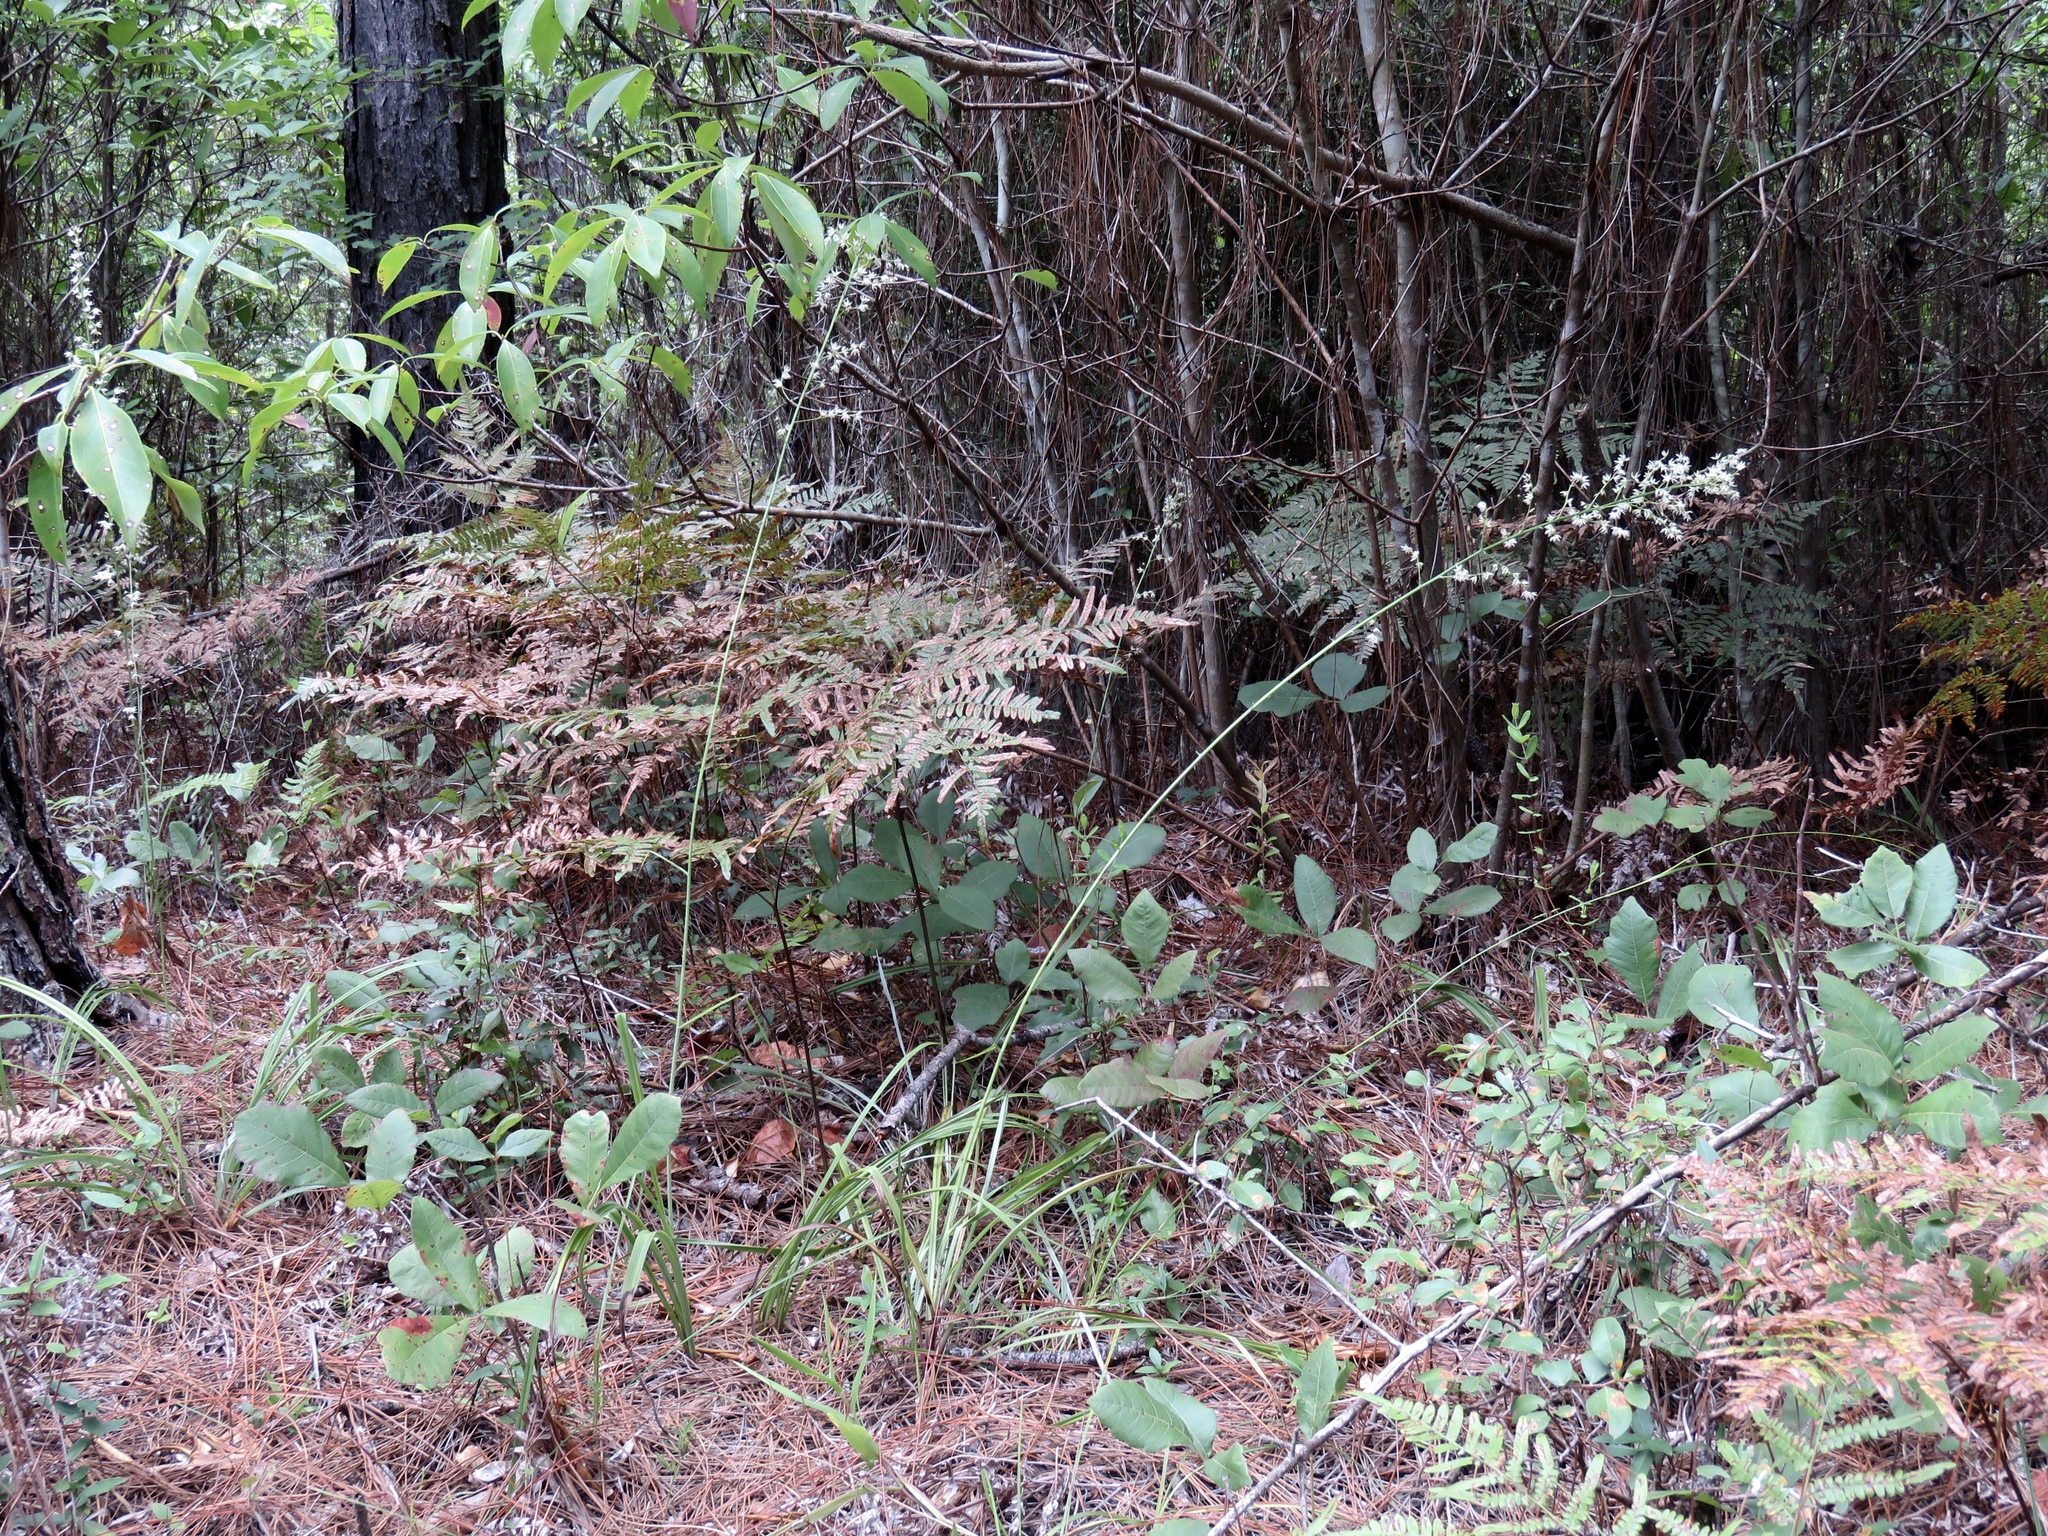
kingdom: Plantae
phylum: Tracheophyta
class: Liliopsida
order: Liliales
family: Melanthiaceae
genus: Stenanthium
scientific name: Stenanthium gramineum
